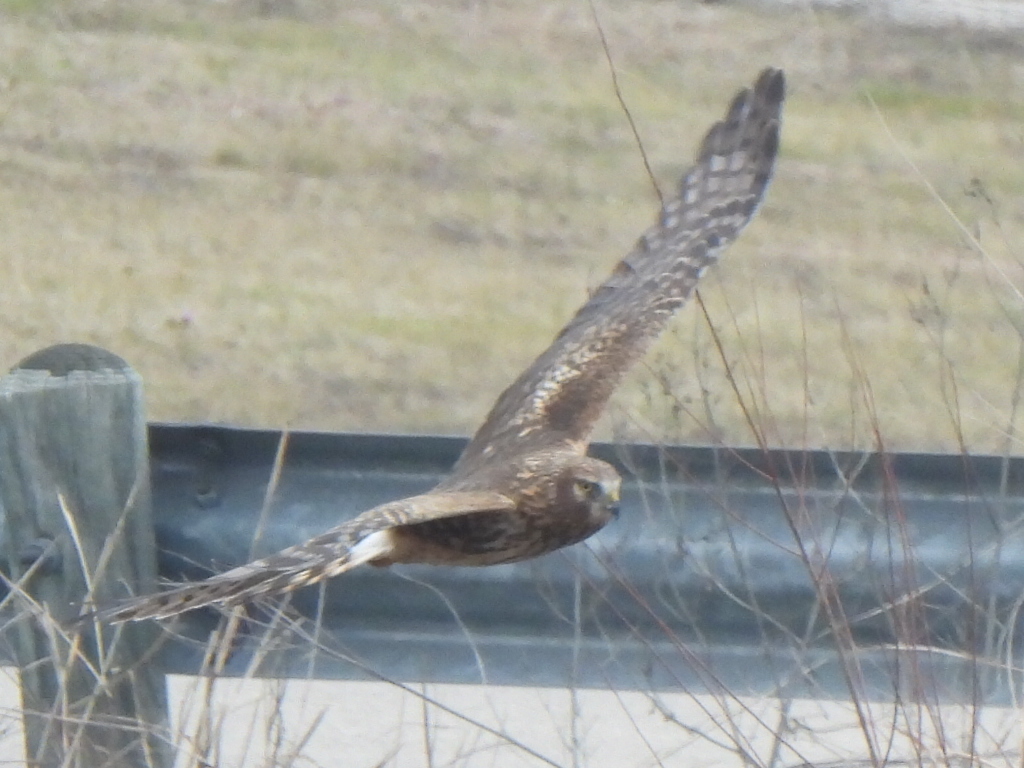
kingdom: Animalia
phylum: Chordata
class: Aves
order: Accipitriformes
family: Accipitridae
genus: Circus
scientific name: Circus cyaneus
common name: Hen harrier
